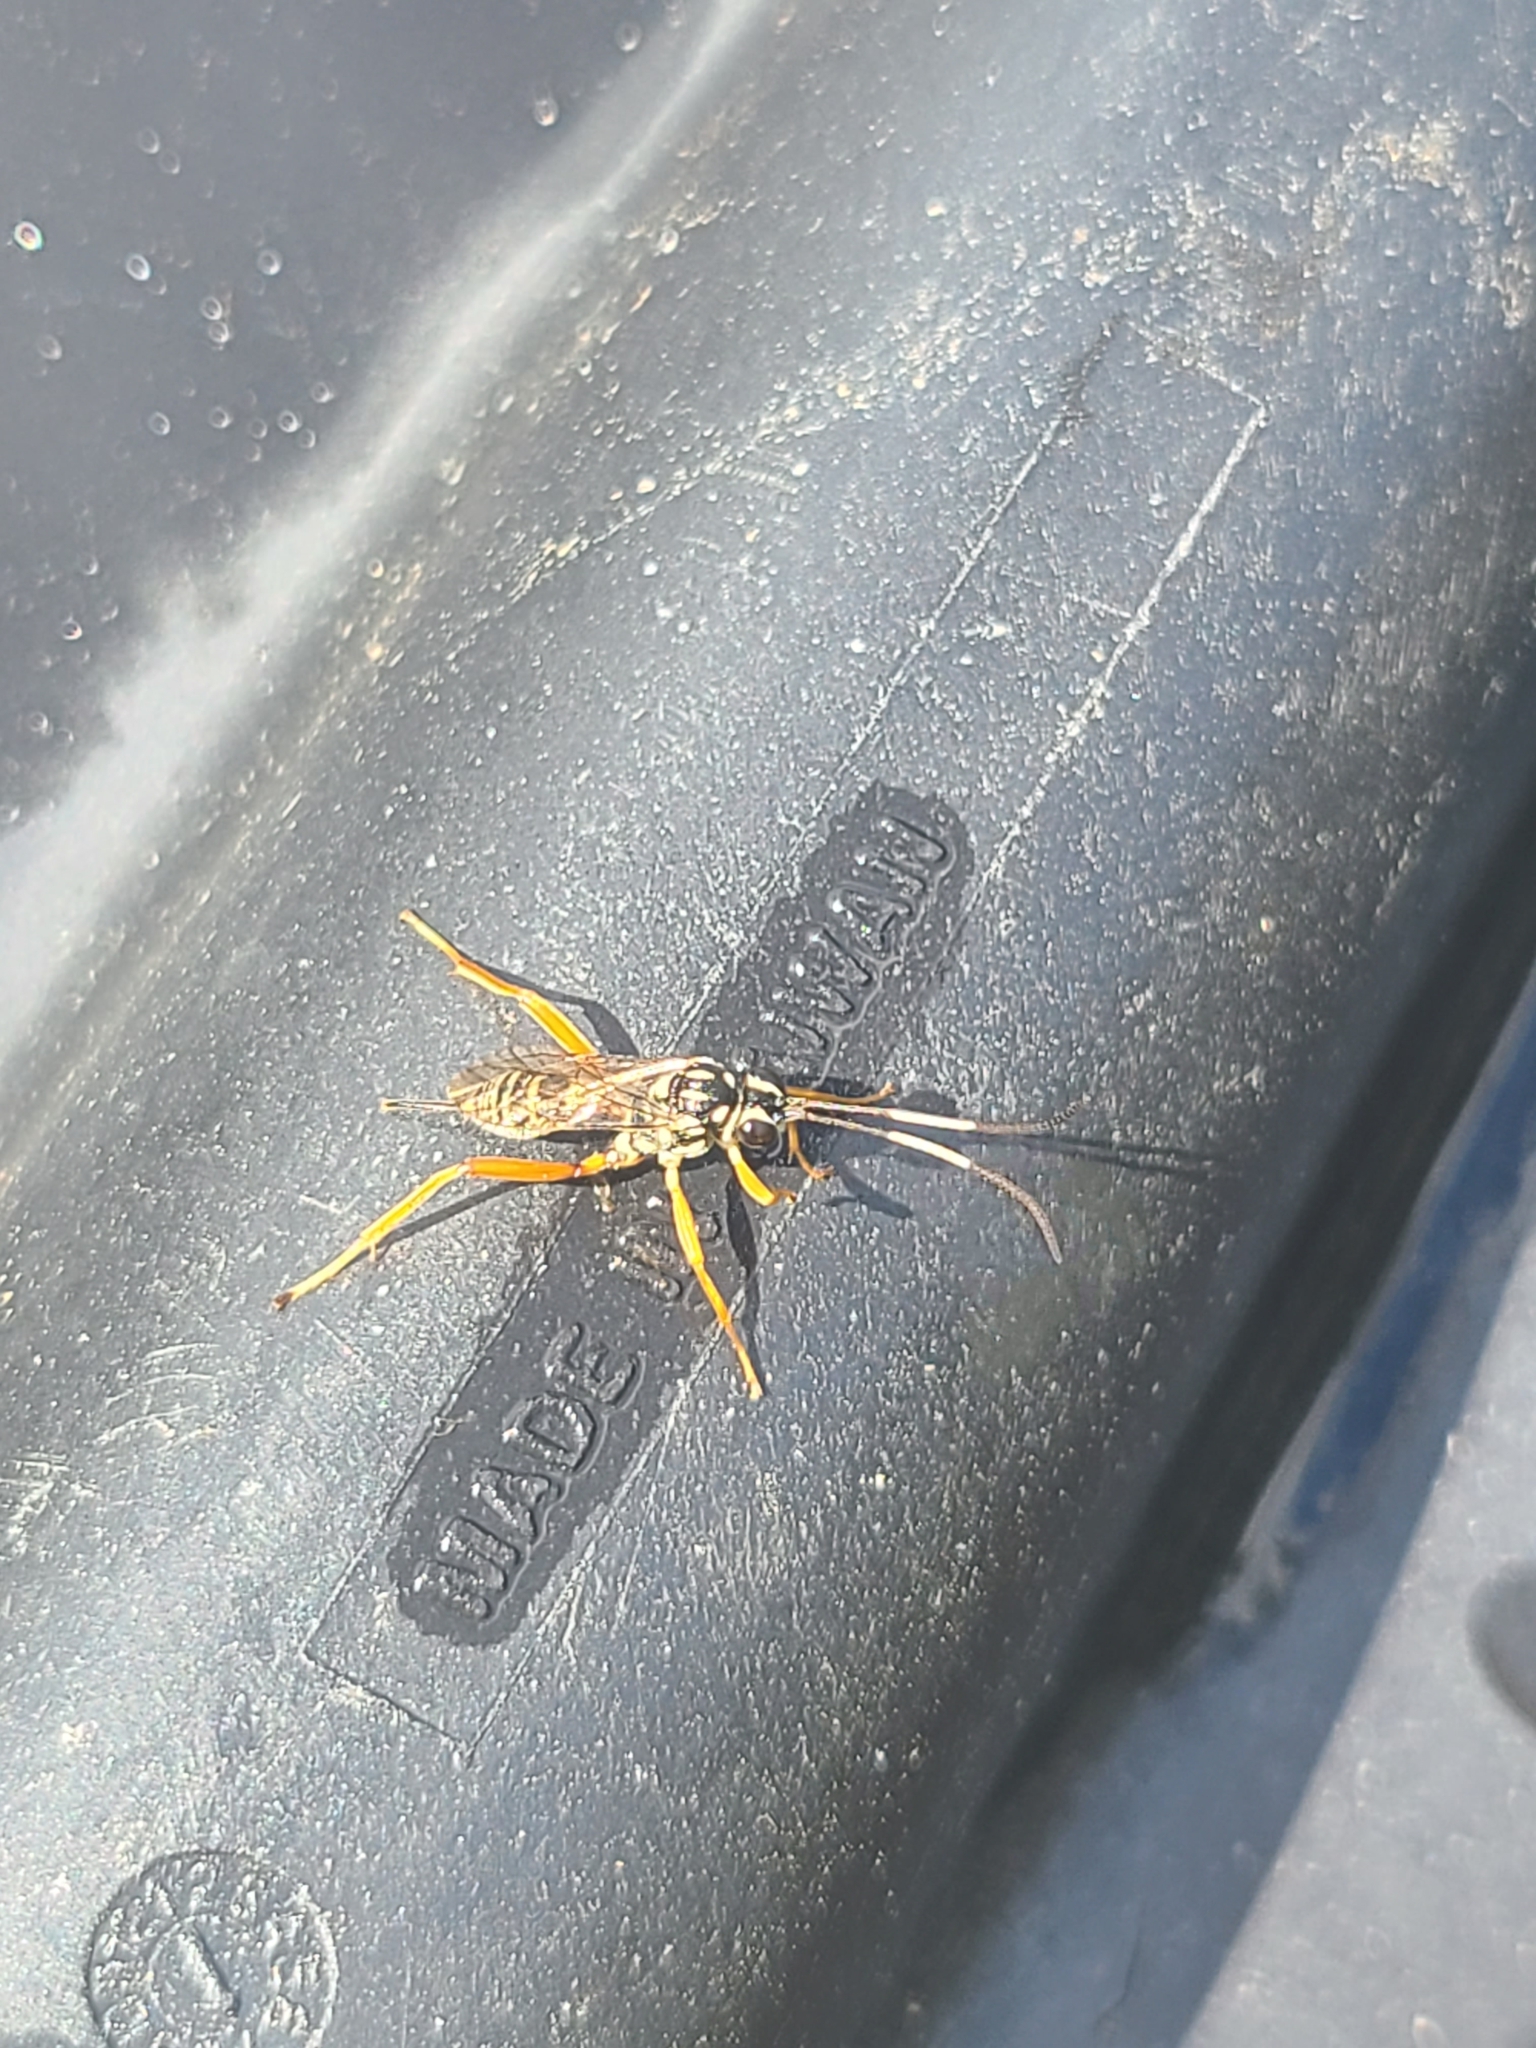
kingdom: Animalia
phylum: Arthropoda
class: Insecta
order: Hymenoptera
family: Ichneumonidae
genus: Baryceros
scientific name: Baryceros fortis
